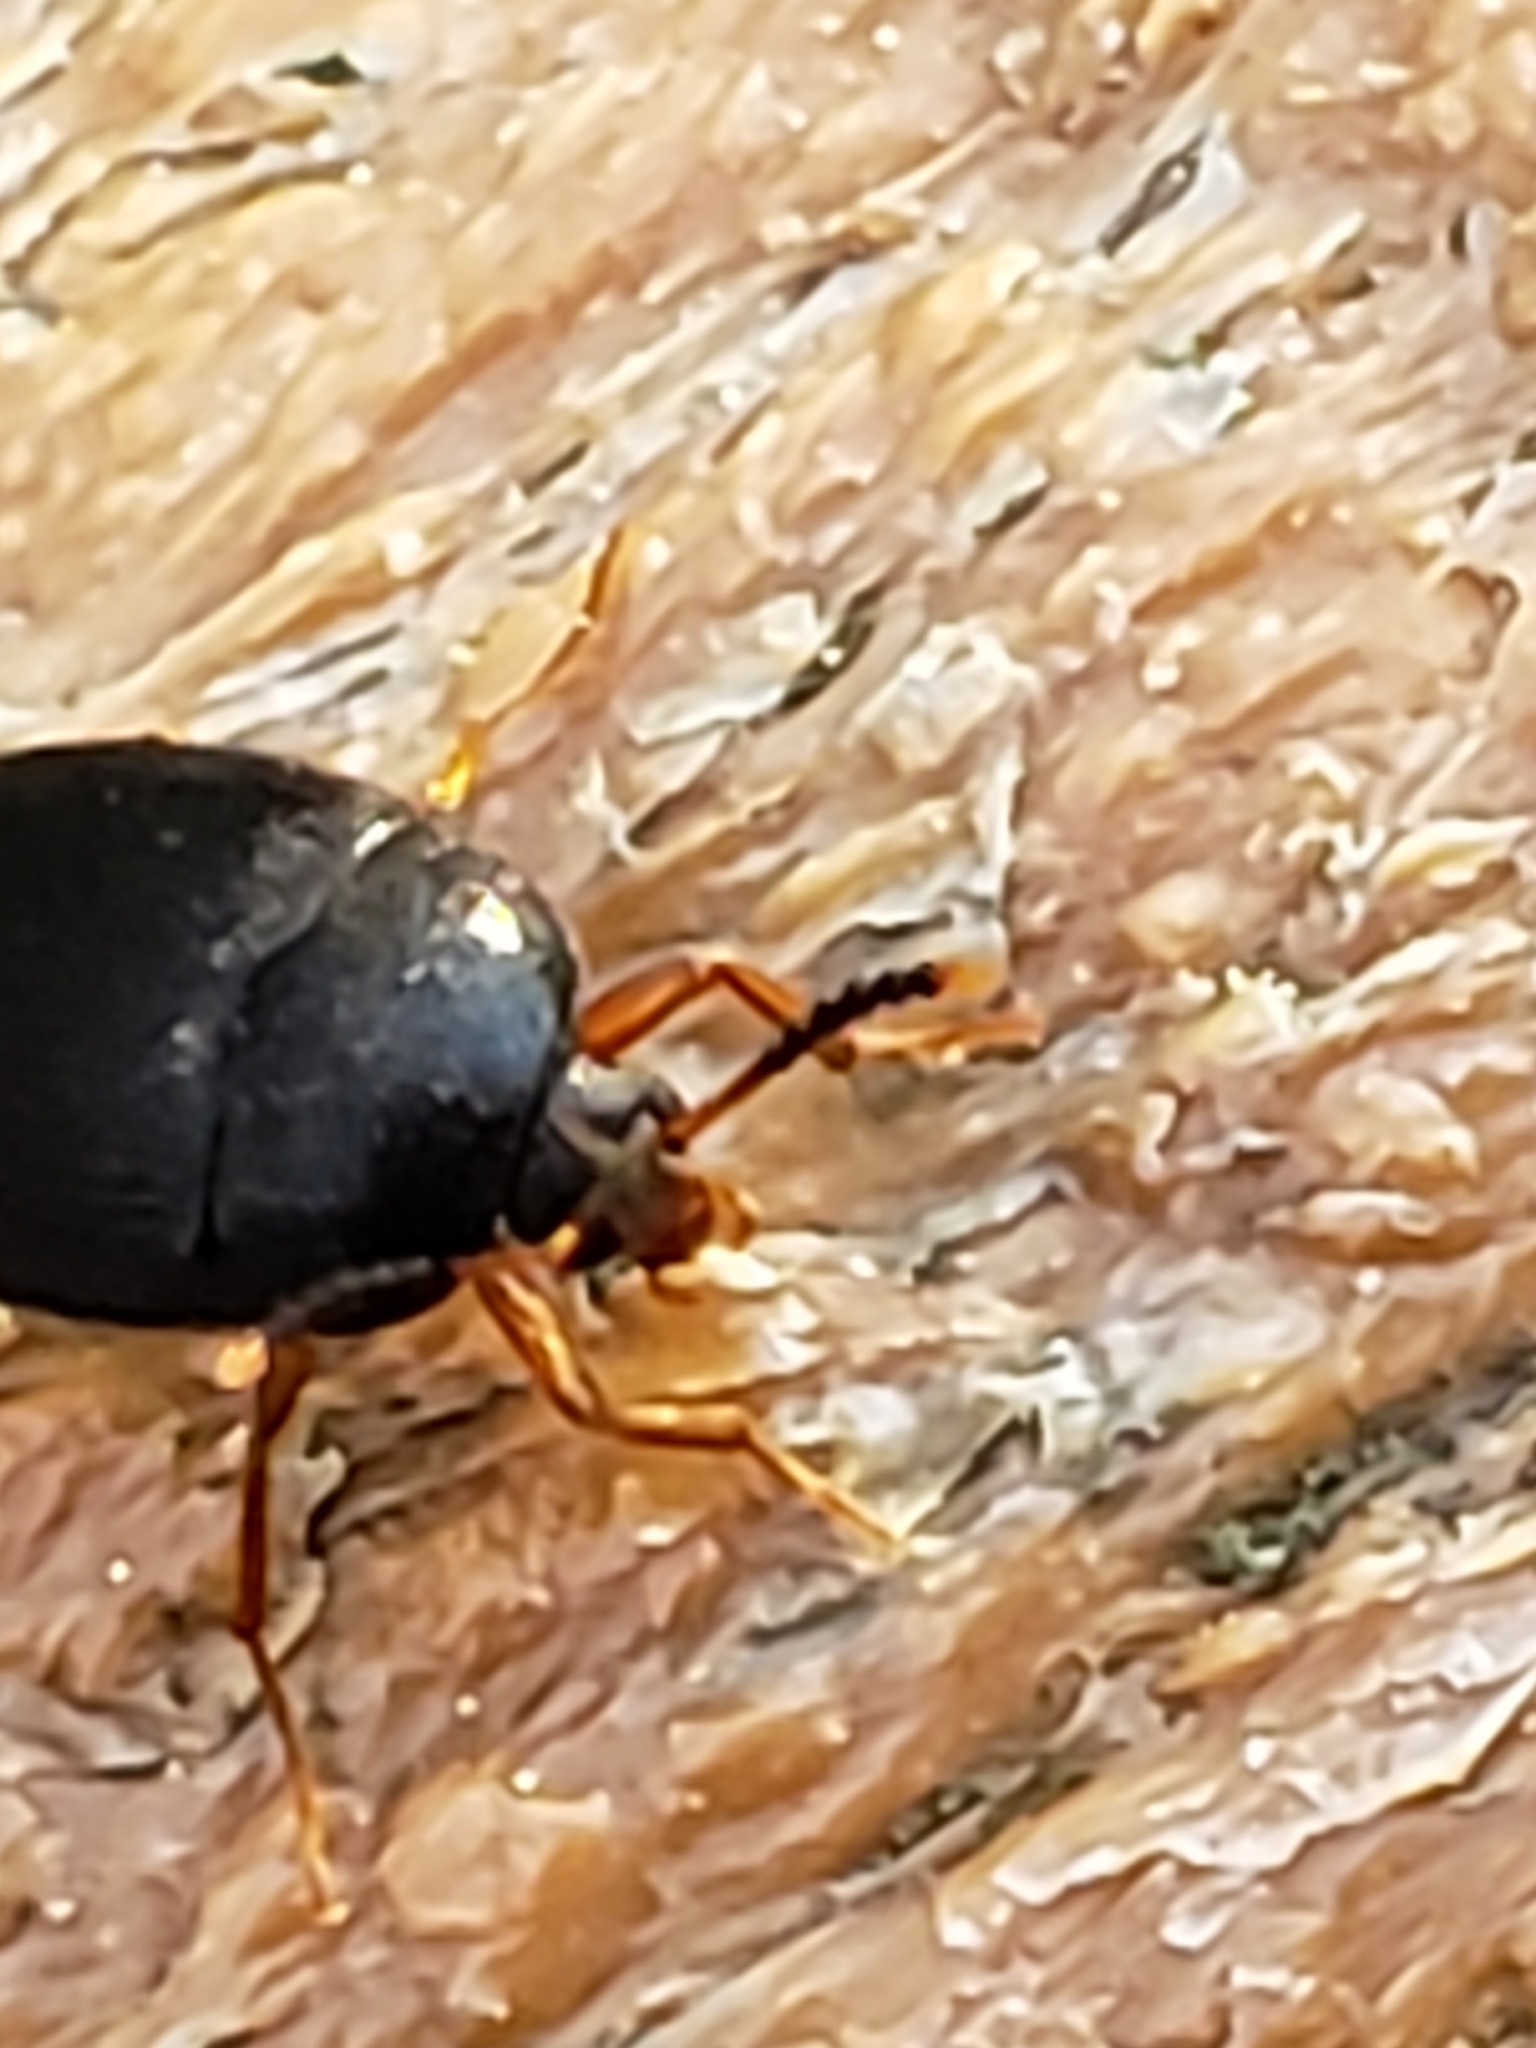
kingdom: Animalia
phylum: Arthropoda
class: Insecta
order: Coleoptera
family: Tetratomidae
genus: Eustrophopsis
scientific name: Eustrophopsis bicolor
